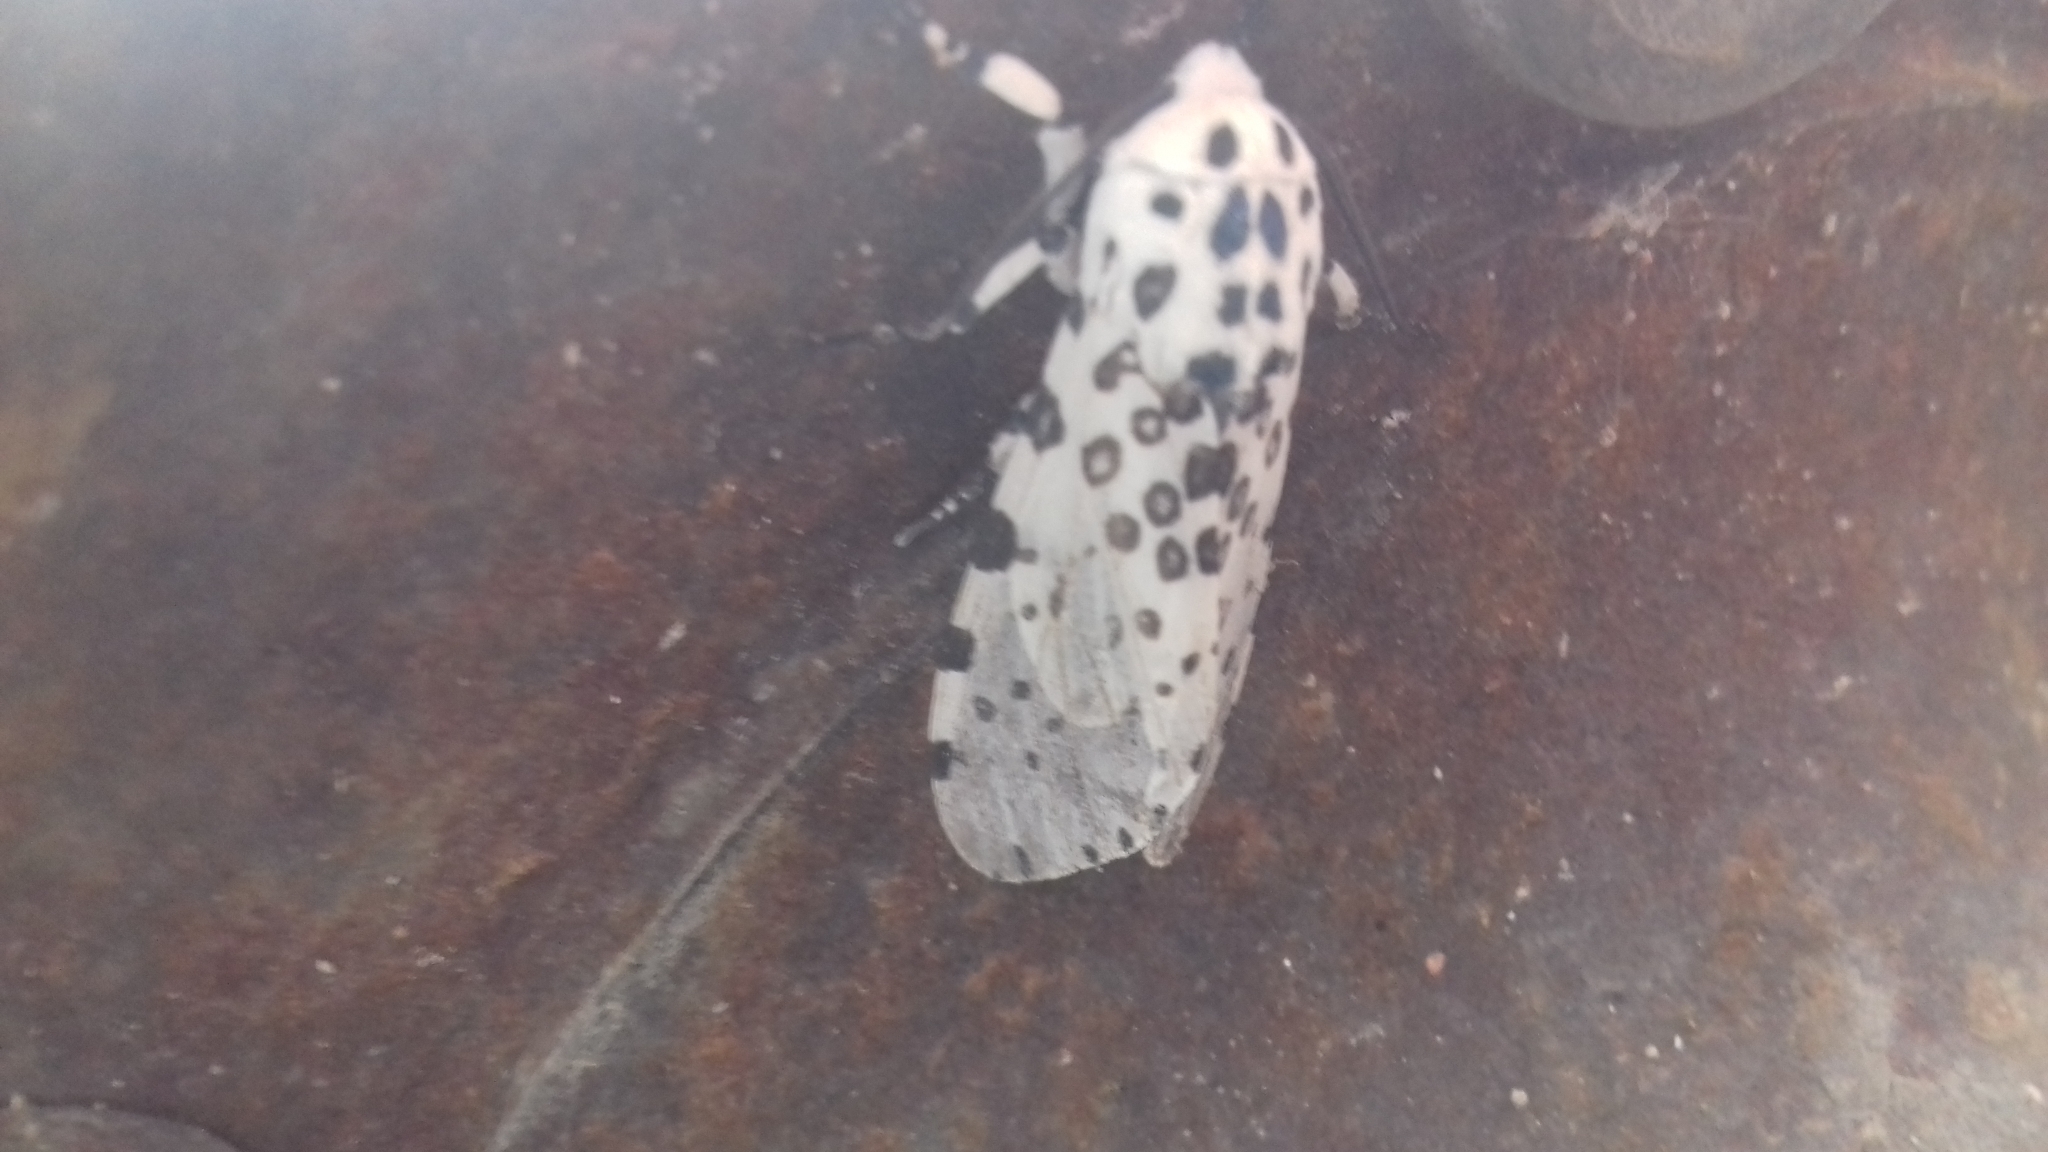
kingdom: Animalia
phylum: Arthropoda
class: Insecta
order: Lepidoptera
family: Erebidae
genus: Hypercompe
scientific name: Hypercompe scribonia
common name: Giant leopard moth
